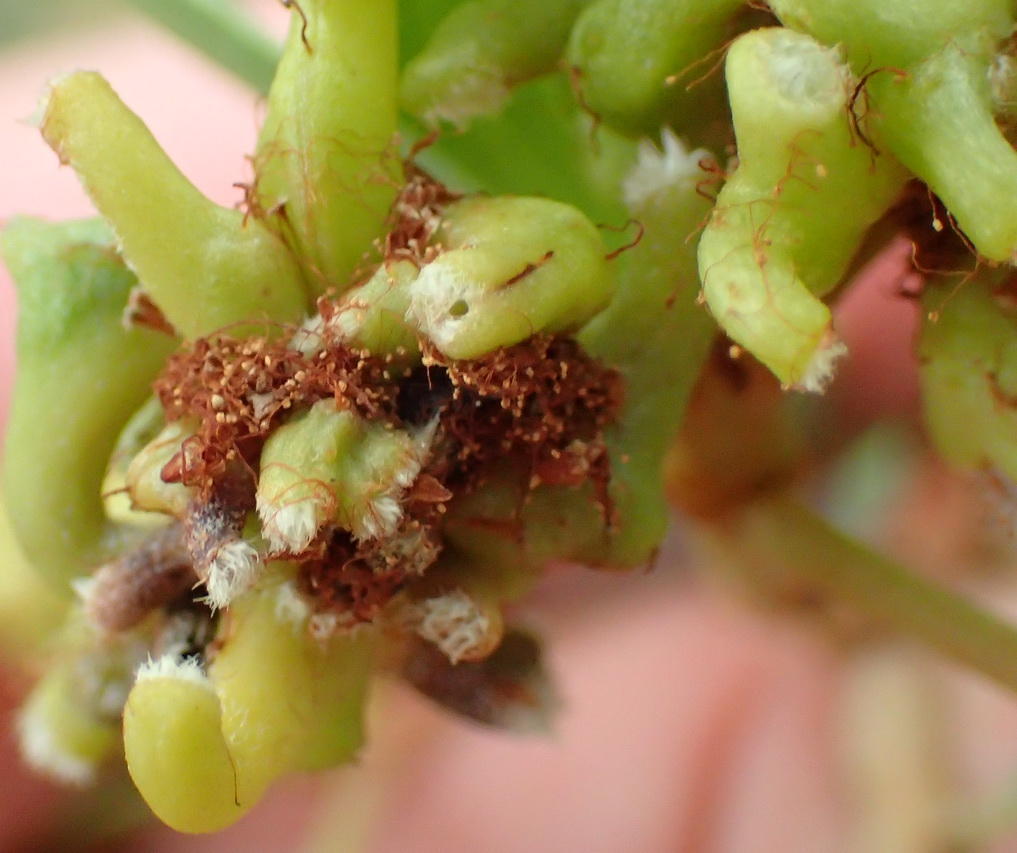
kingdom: Animalia
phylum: Arthropoda
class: Insecta
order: Diptera
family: Cecidomyiidae
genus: Dasineura
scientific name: Dasineura dielsi
